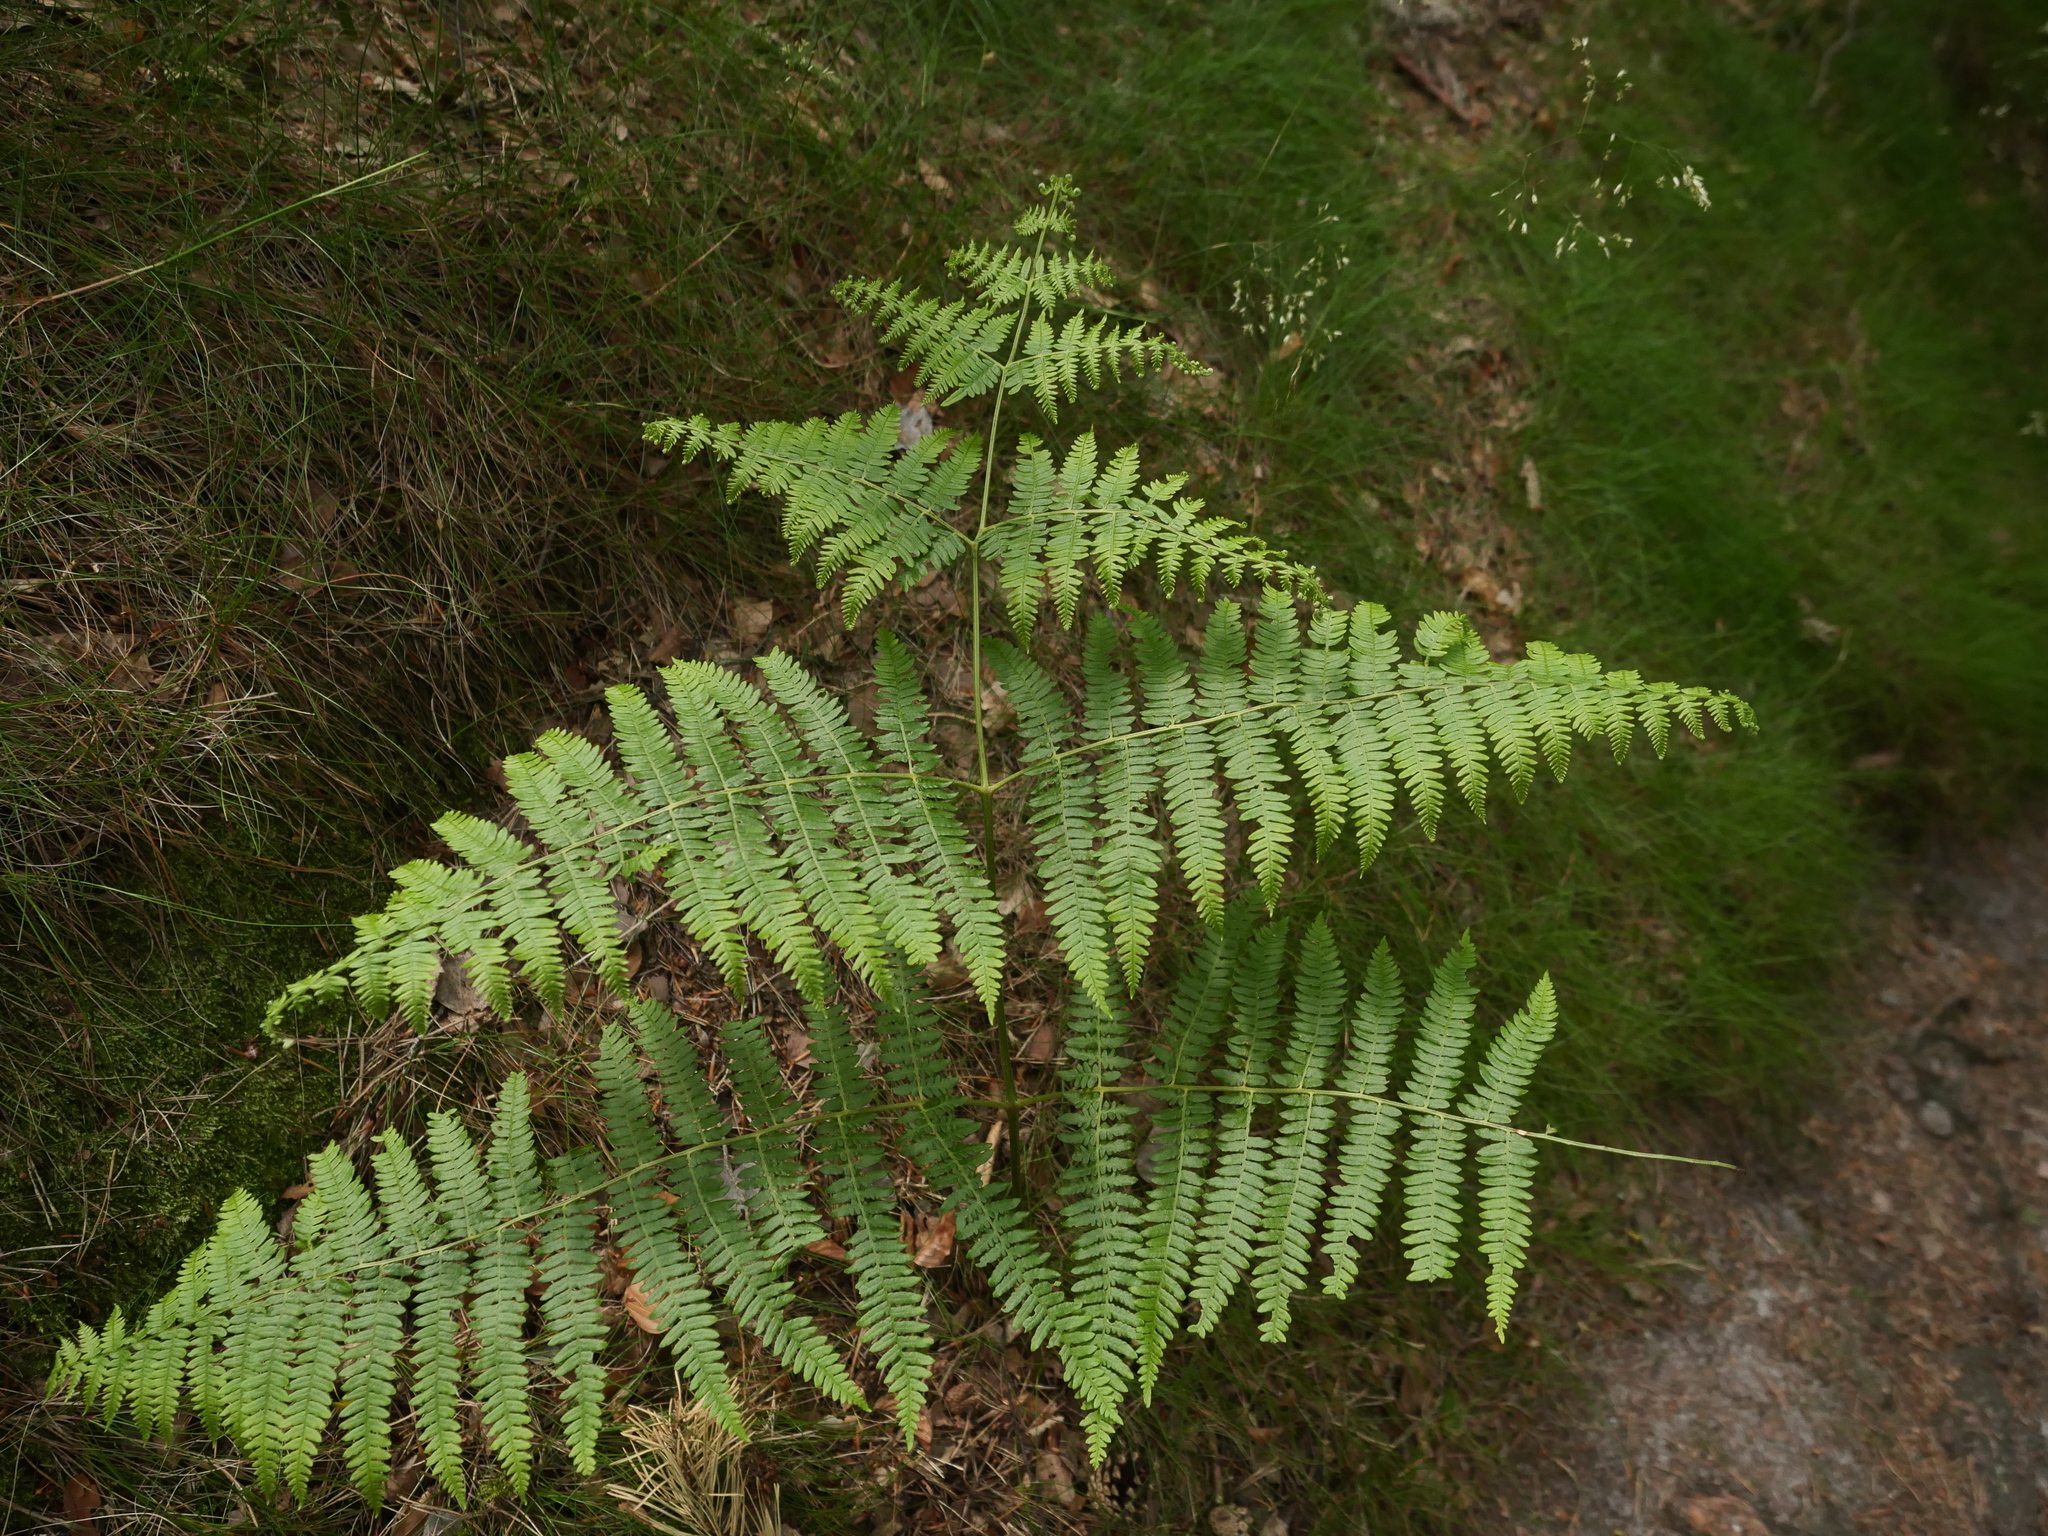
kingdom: Plantae
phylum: Tracheophyta
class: Polypodiopsida
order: Polypodiales
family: Dennstaedtiaceae
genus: Pteridium
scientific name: Pteridium aquilinum
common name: Bracken
